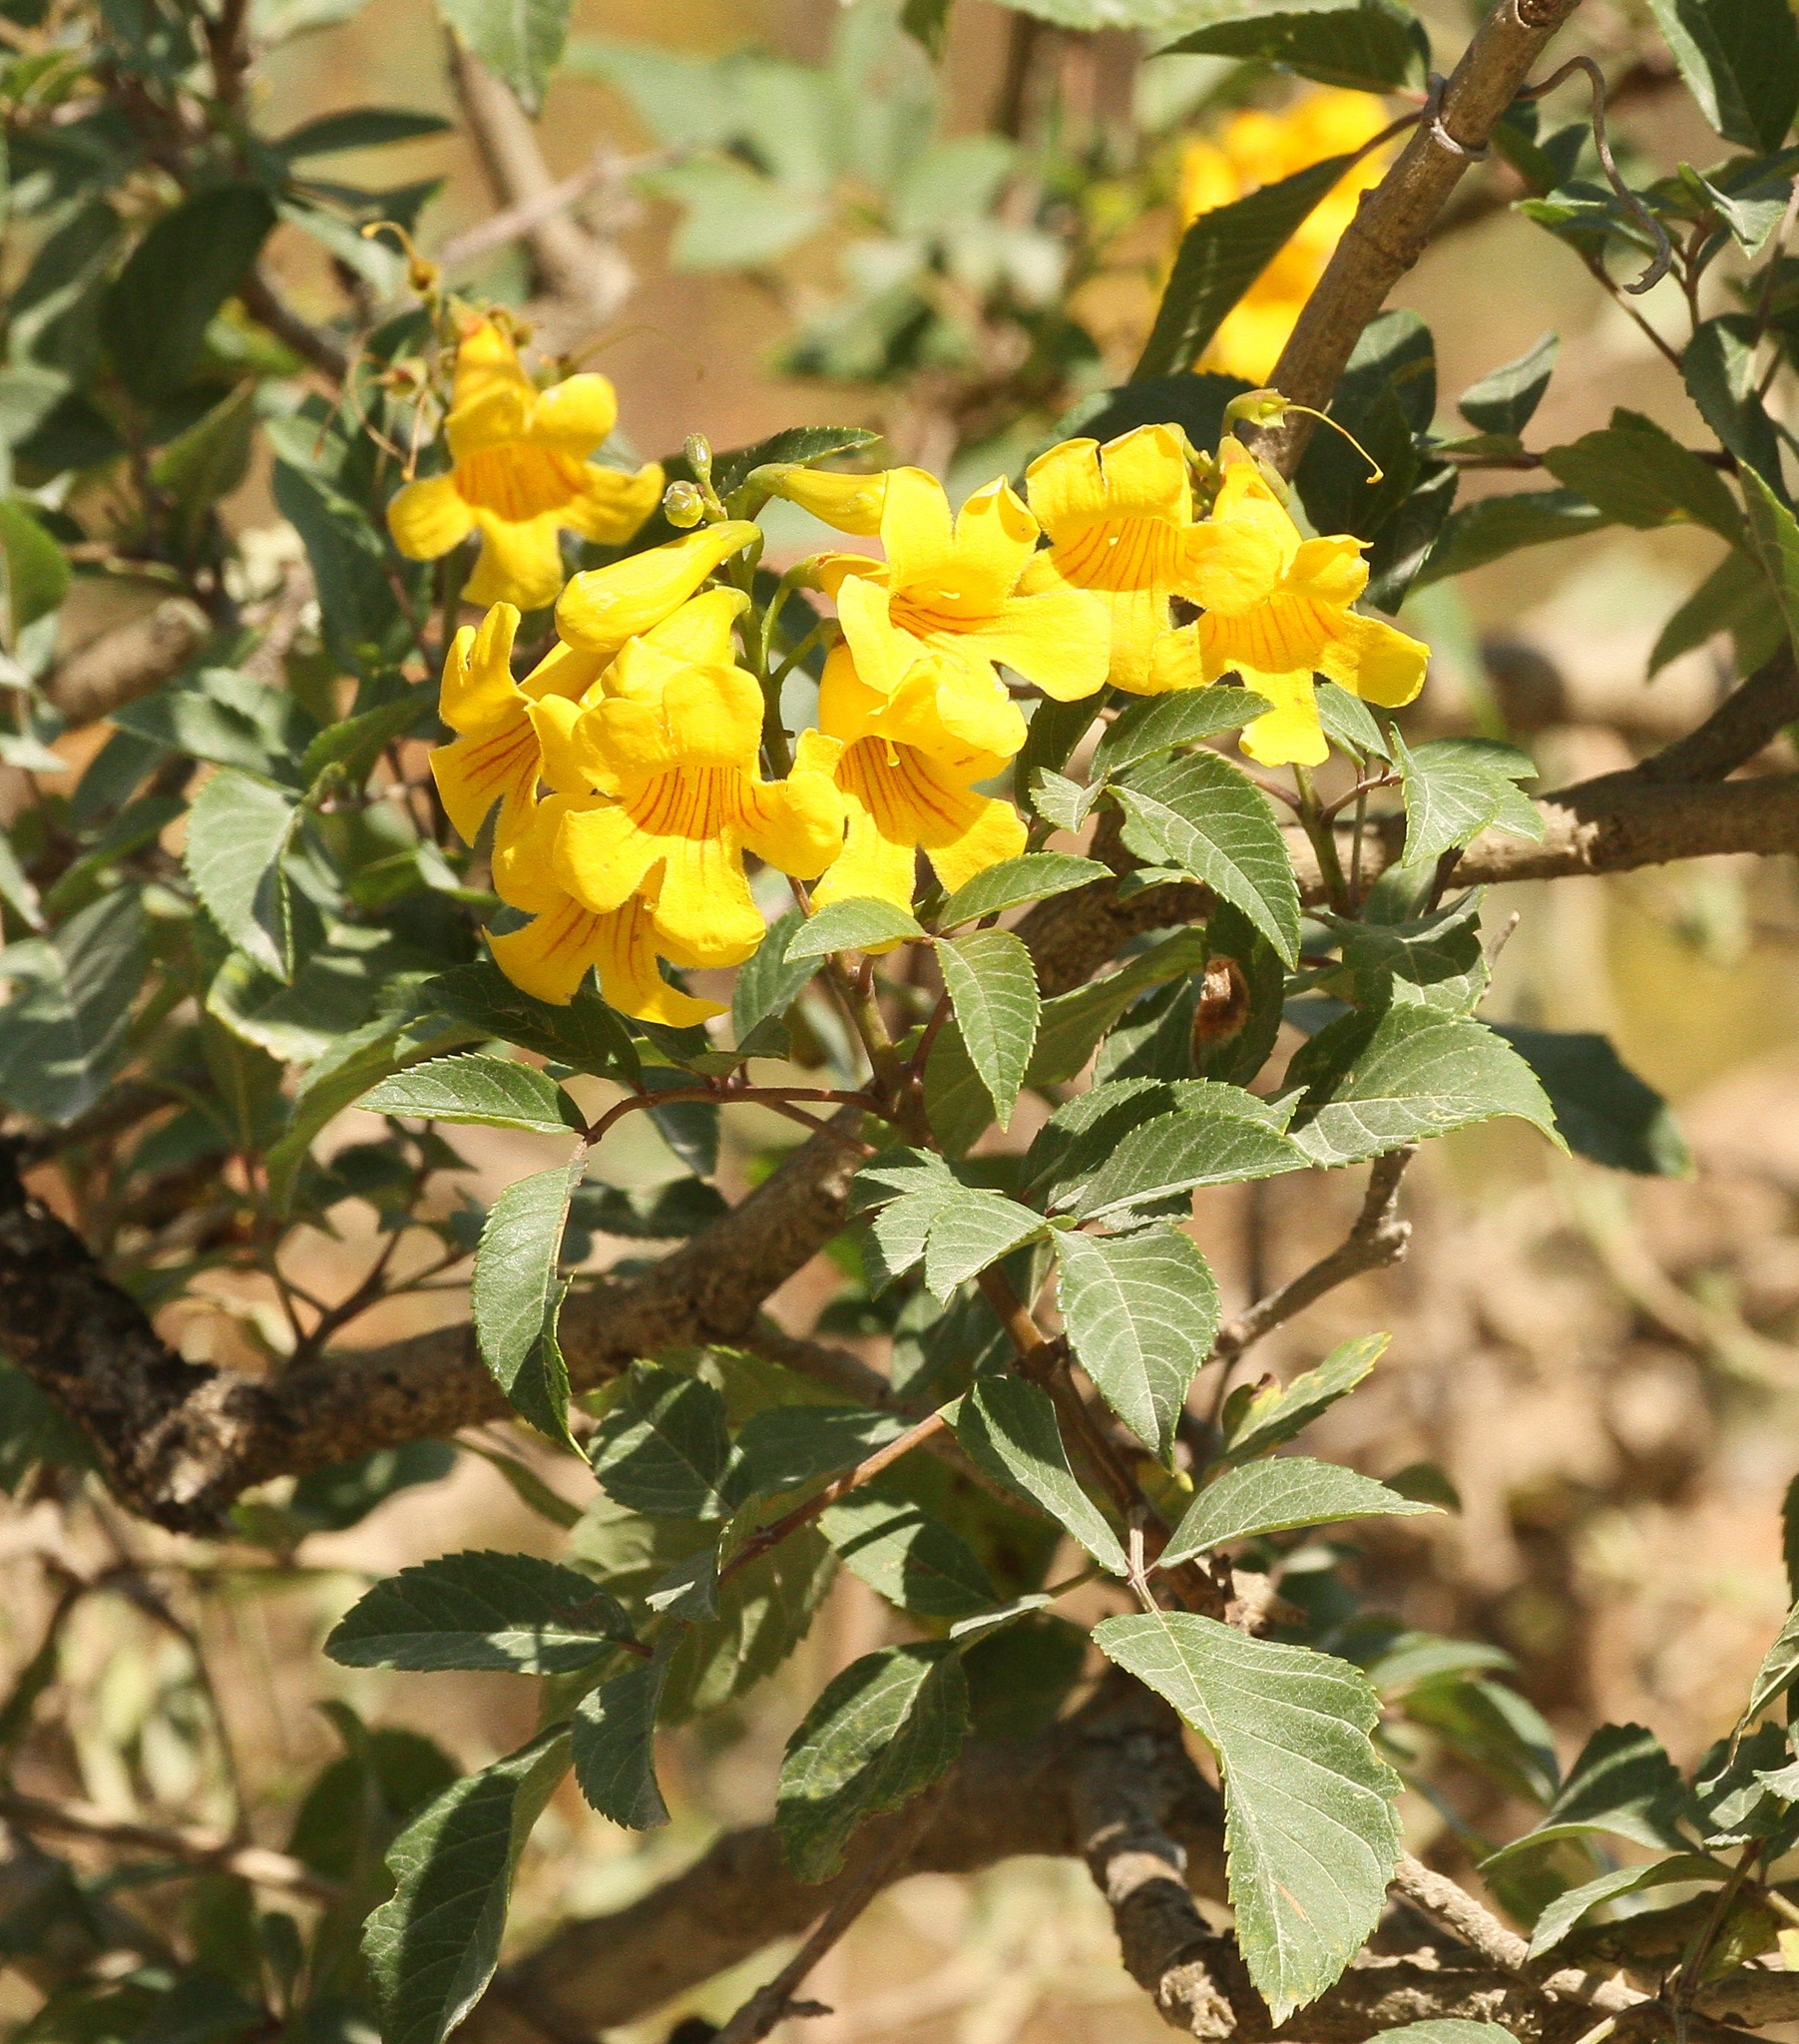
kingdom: Plantae
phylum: Tracheophyta
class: Magnoliopsida
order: Lamiales
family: Bignoniaceae
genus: Tecoma
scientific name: Tecoma stans
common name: Yellow trumpetbush
